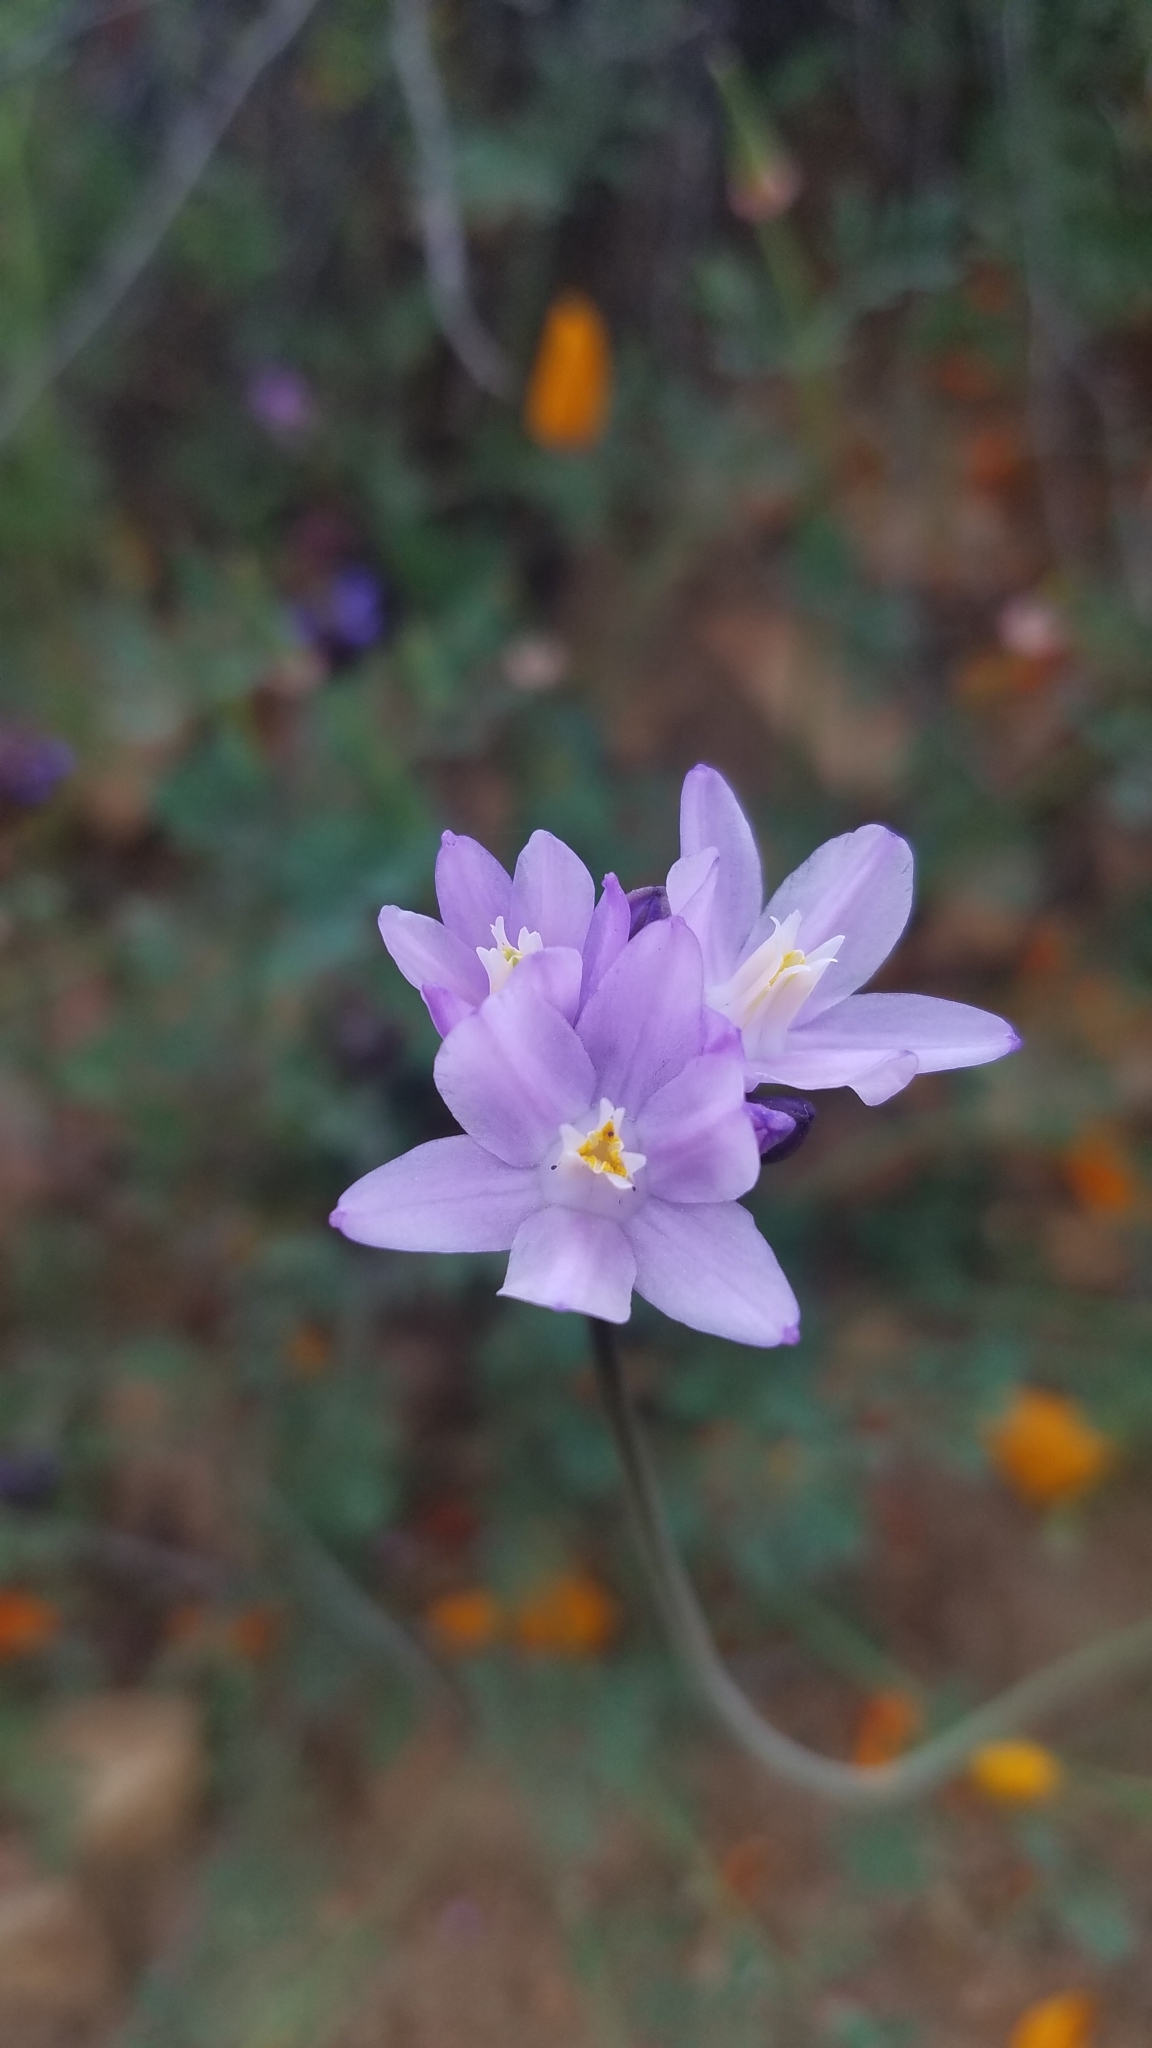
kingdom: Plantae
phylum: Tracheophyta
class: Liliopsida
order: Asparagales
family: Asparagaceae
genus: Dipterostemon
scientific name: Dipterostemon capitatus
